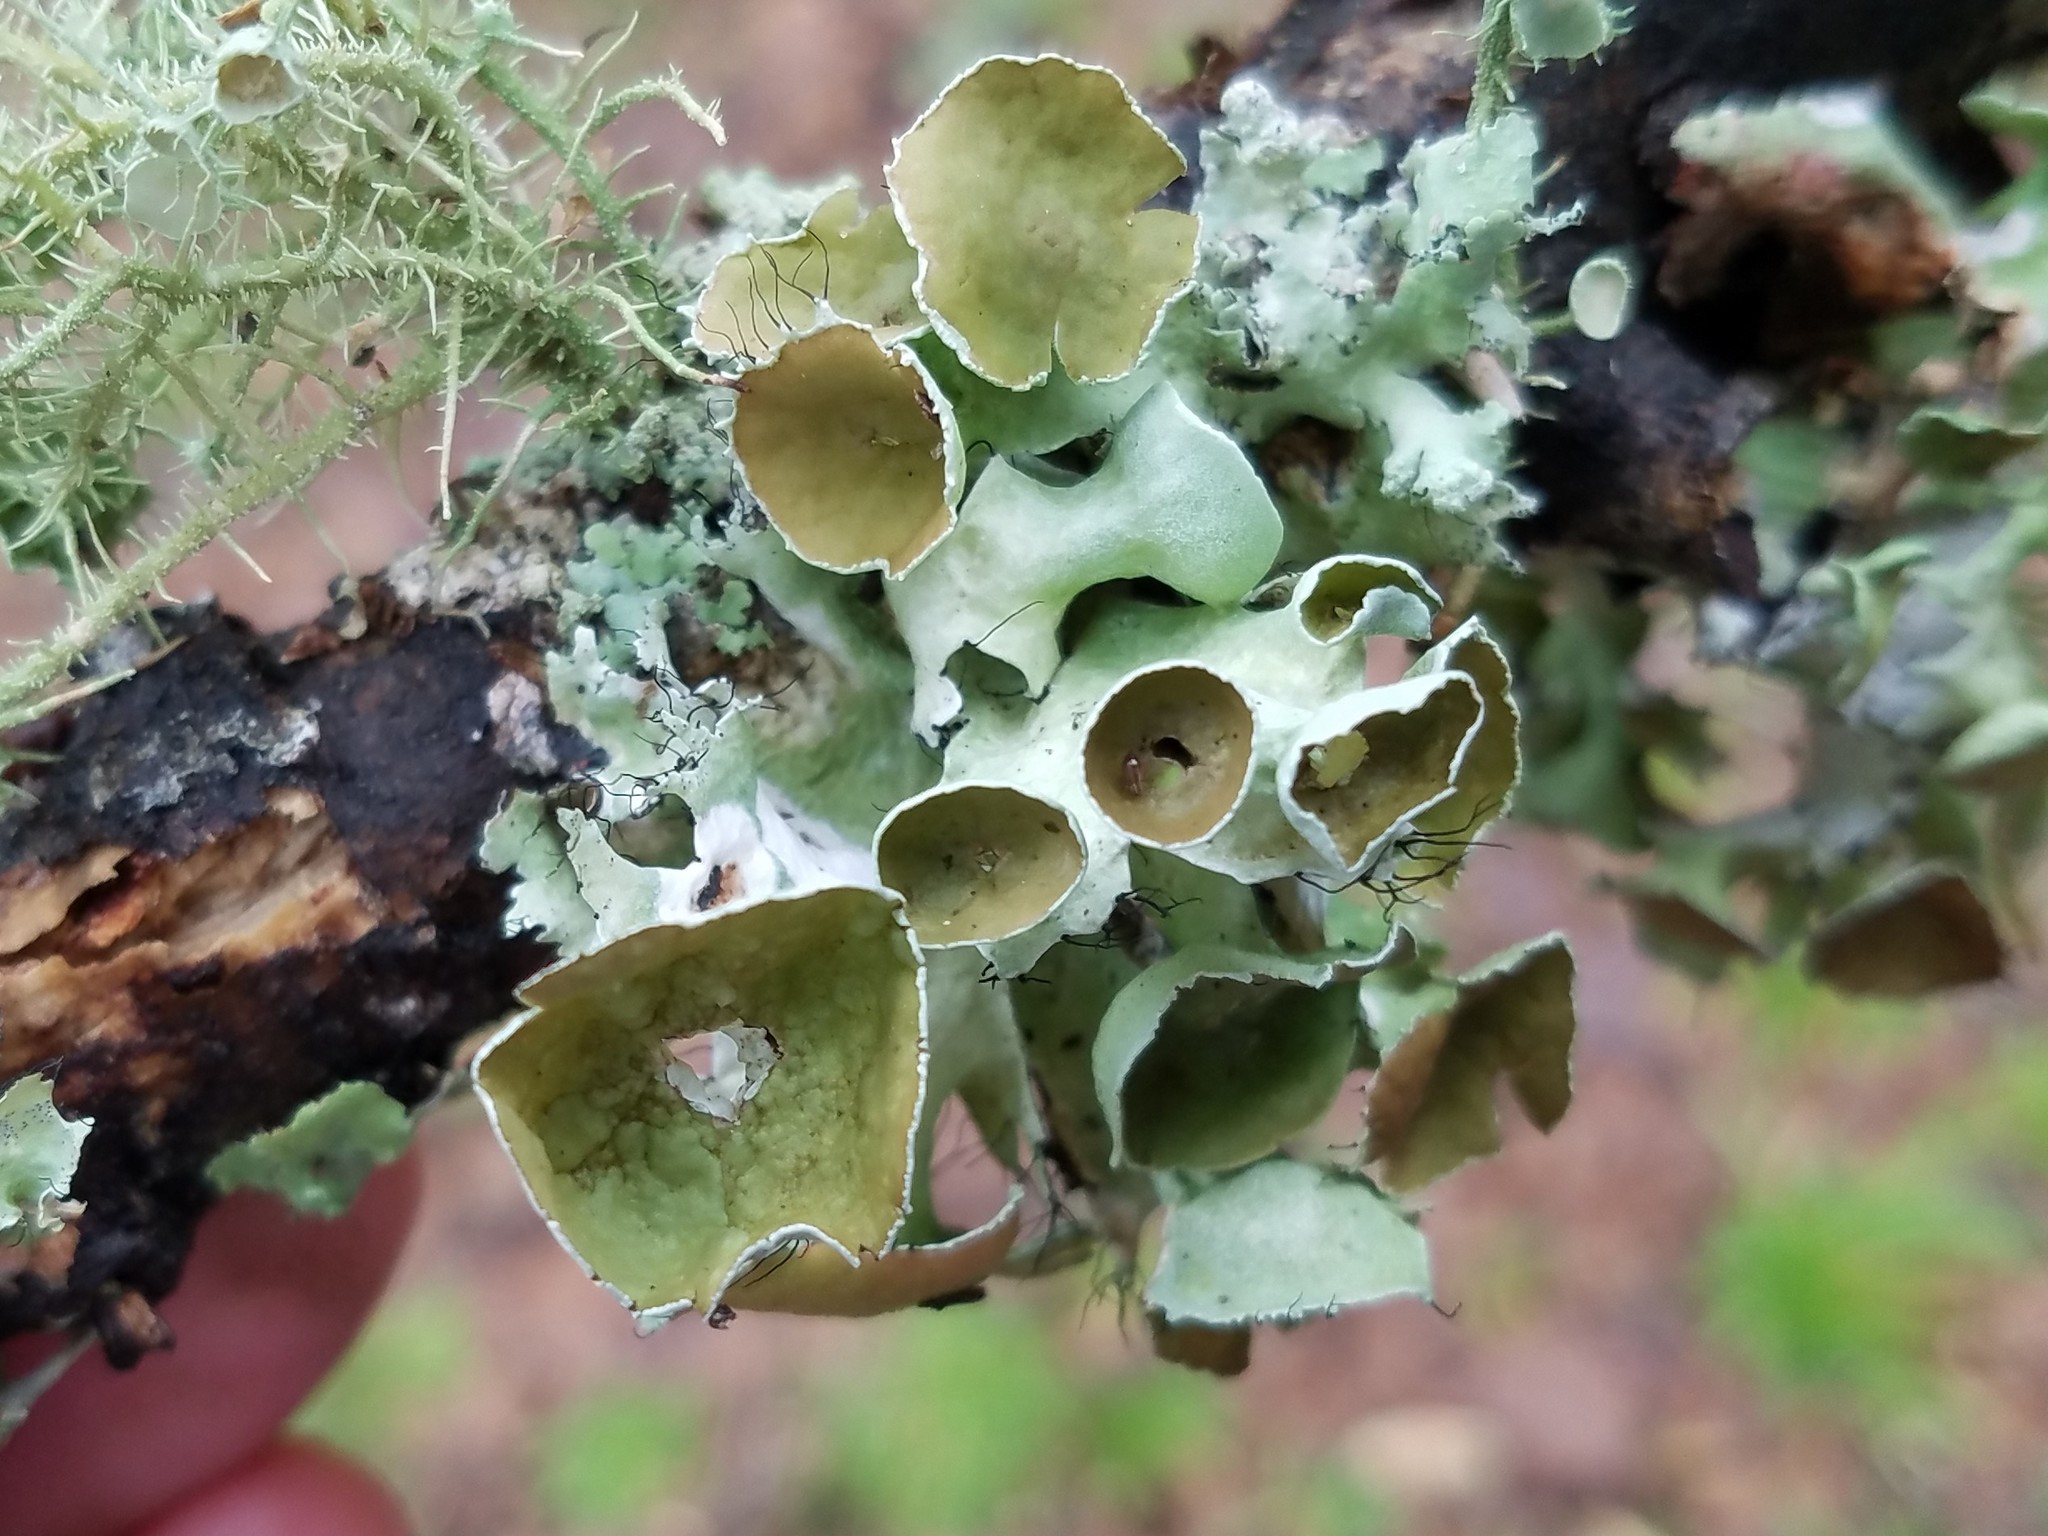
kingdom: Fungi
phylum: Ascomycota
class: Lecanoromycetes
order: Lecanorales
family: Parmeliaceae
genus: Parmotrema
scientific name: Parmotrema perforatum
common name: Perforated ruffle lichen
